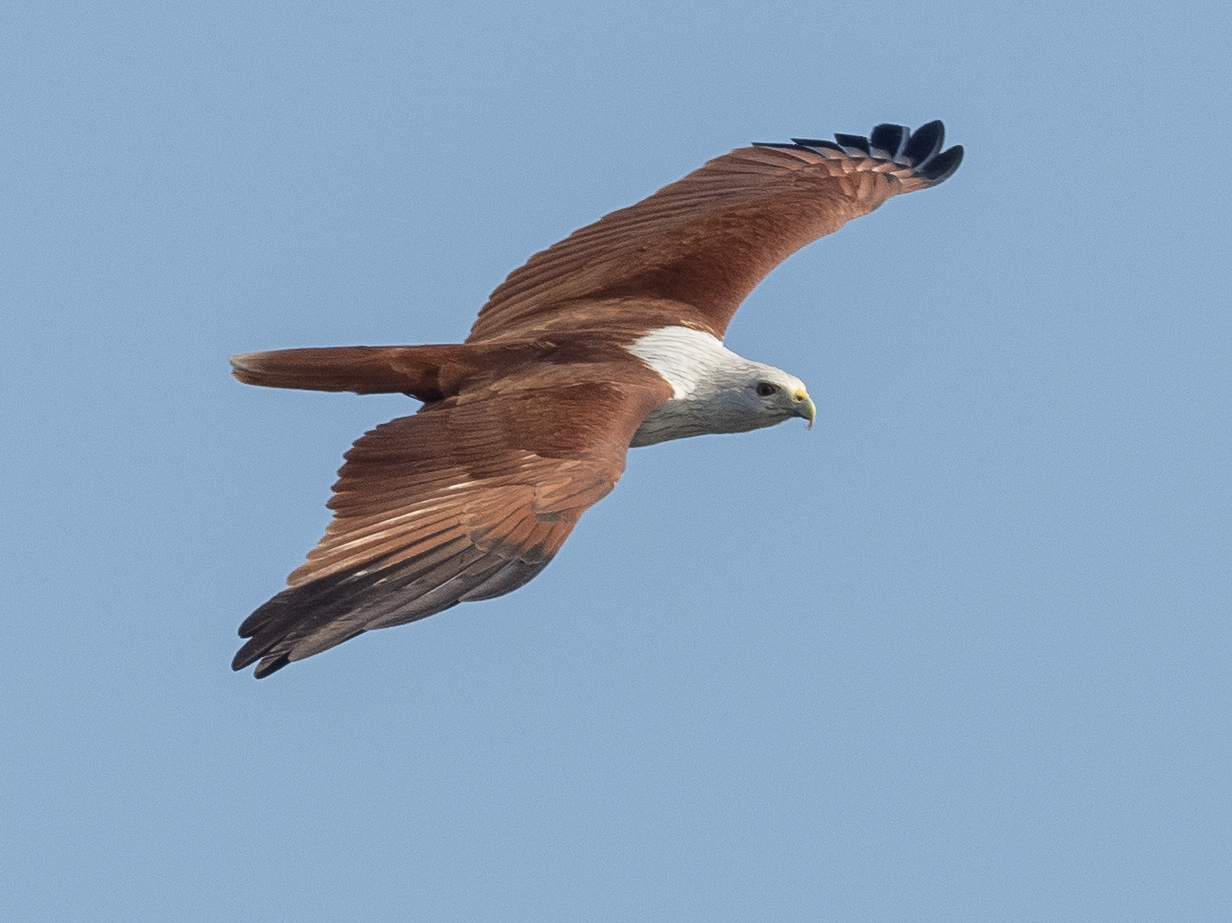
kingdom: Animalia
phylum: Chordata
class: Aves
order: Accipitriformes
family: Accipitridae
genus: Haliastur
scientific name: Haliastur indus
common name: Brahminy kite
